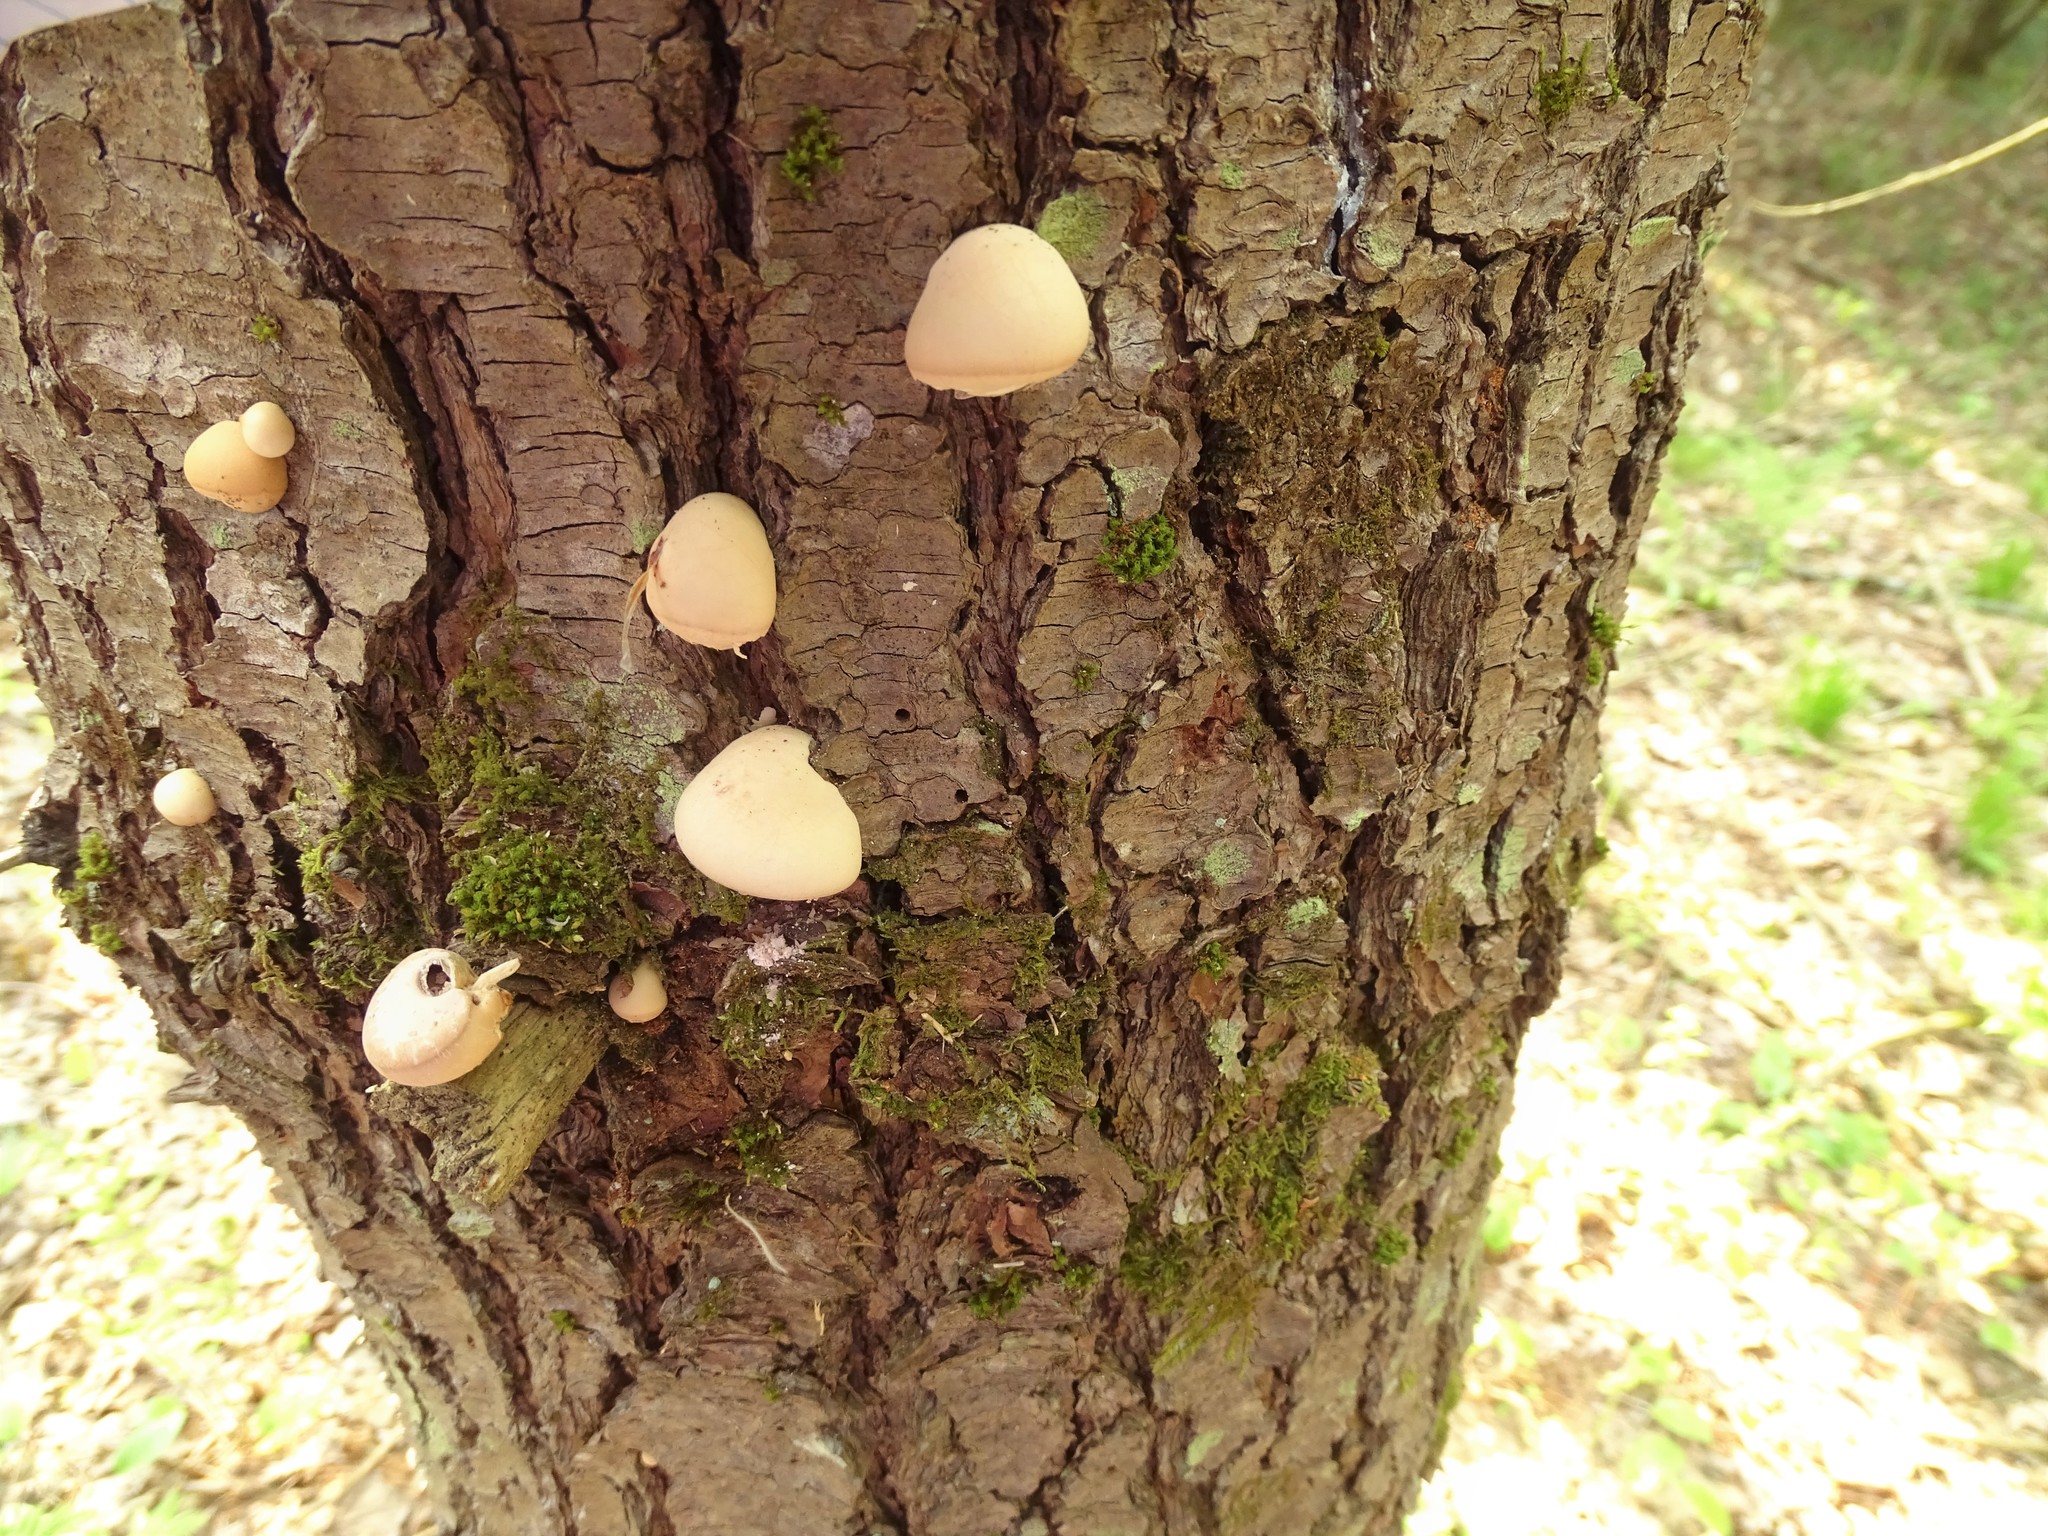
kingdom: Fungi
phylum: Basidiomycota
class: Agaricomycetes
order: Polyporales
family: Polyporaceae
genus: Cryptoporus
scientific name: Cryptoporus volvatus
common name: Veiled polypore
